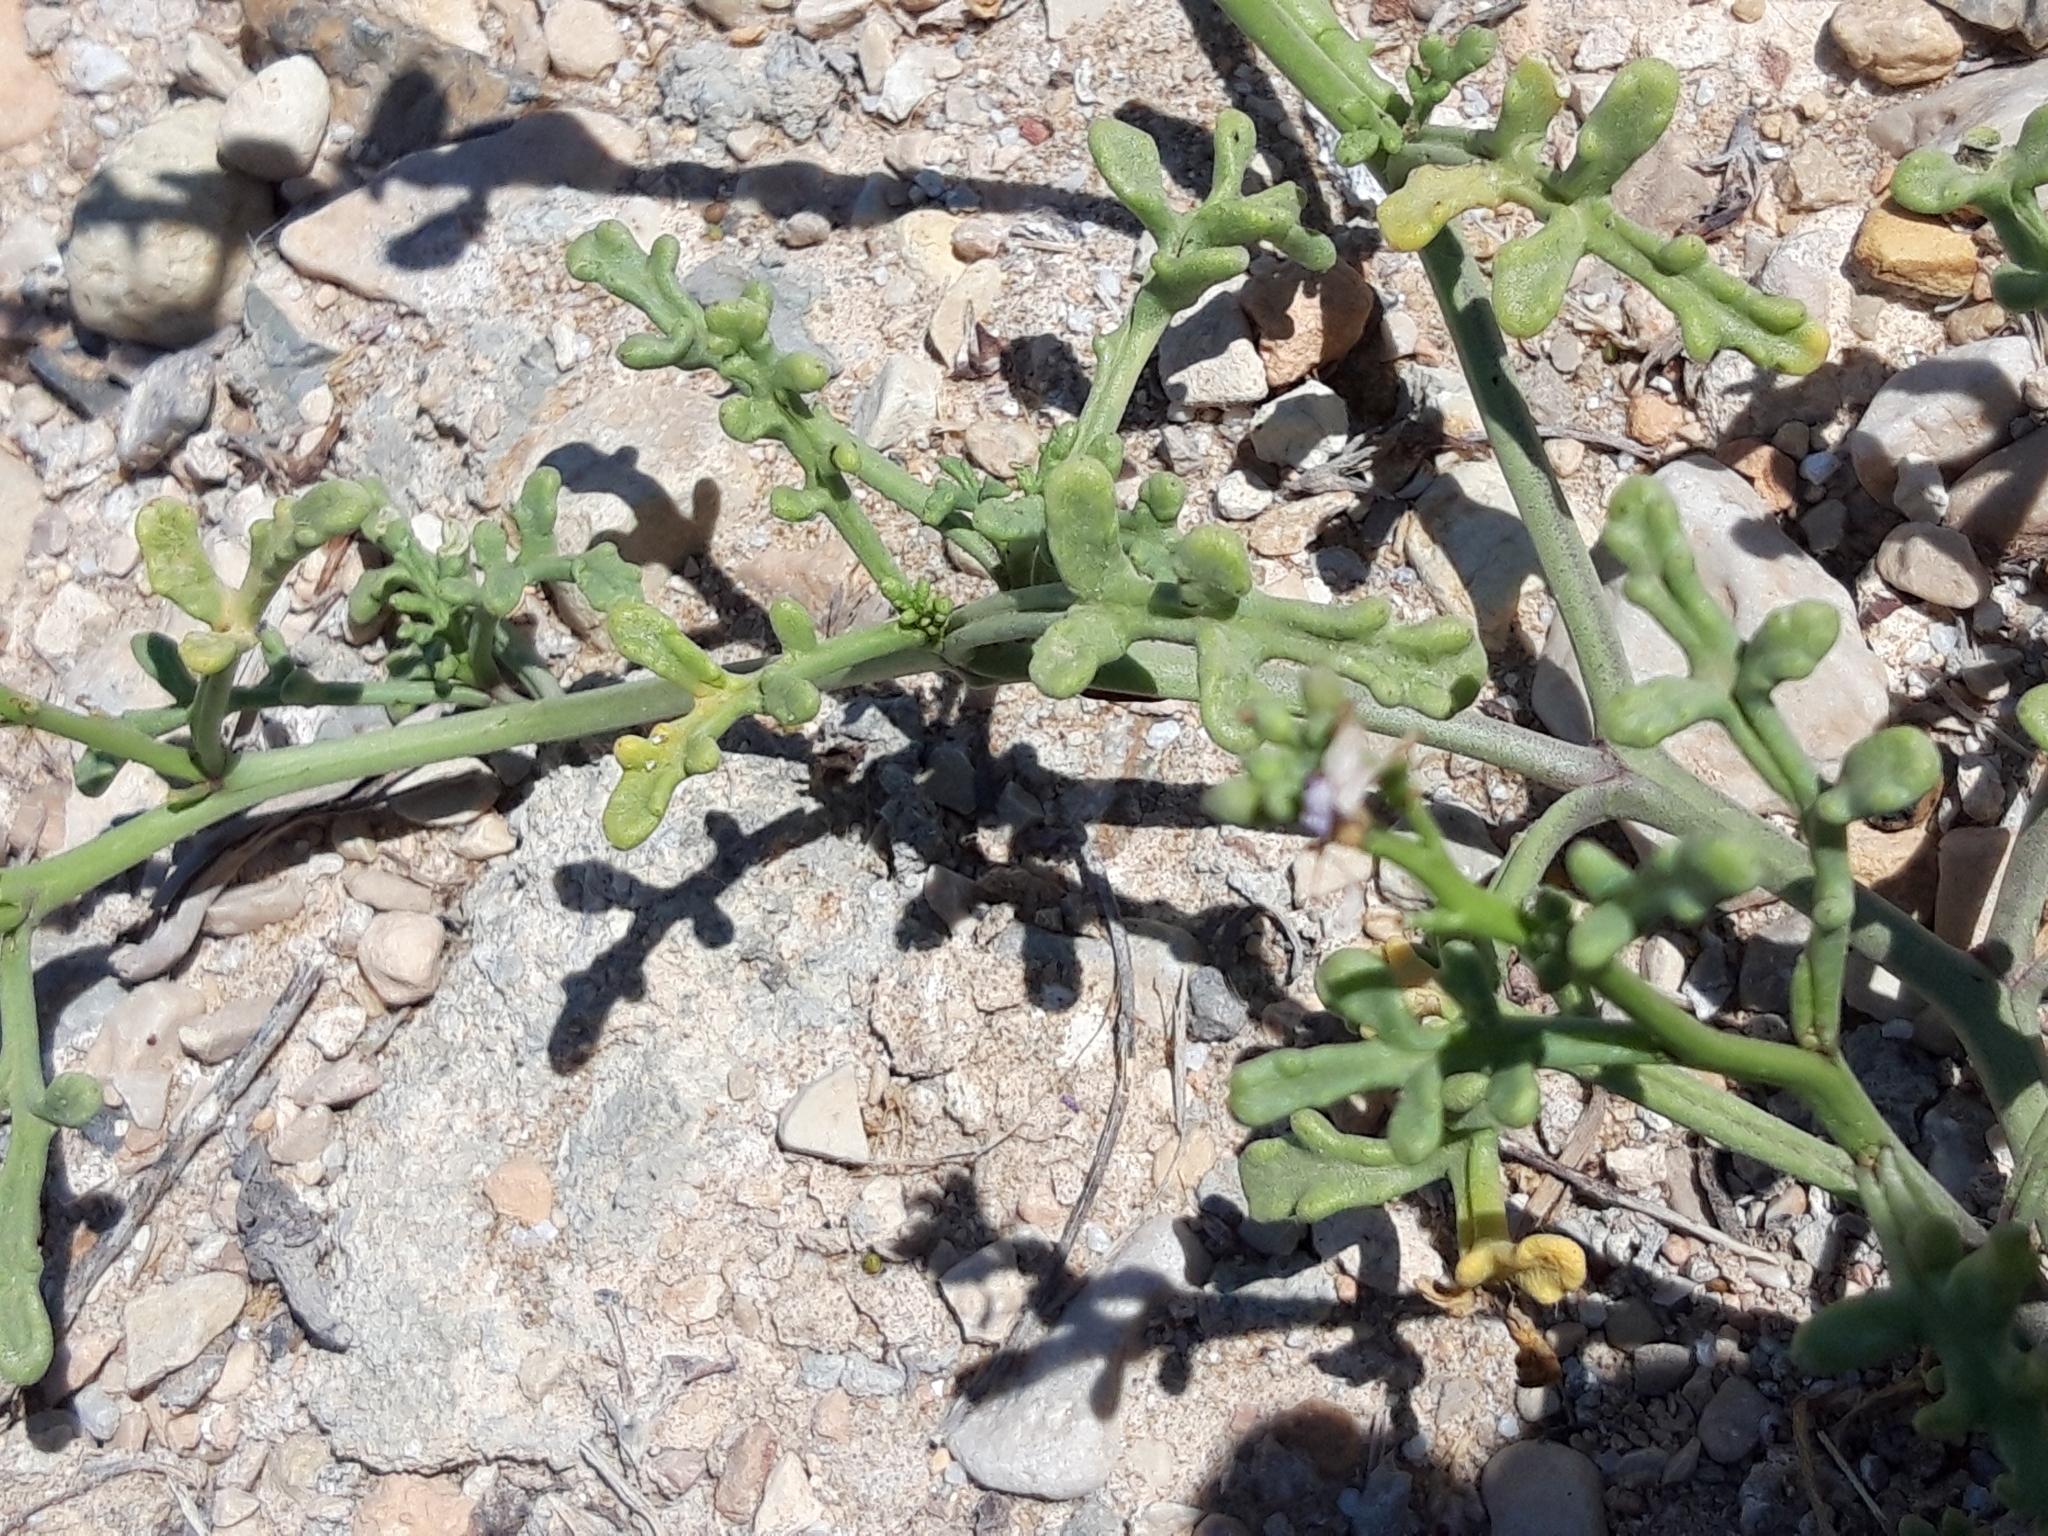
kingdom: Plantae
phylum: Tracheophyta
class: Magnoliopsida
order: Brassicales
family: Brassicaceae
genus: Cakile
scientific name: Cakile maritima
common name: Sea rocket
